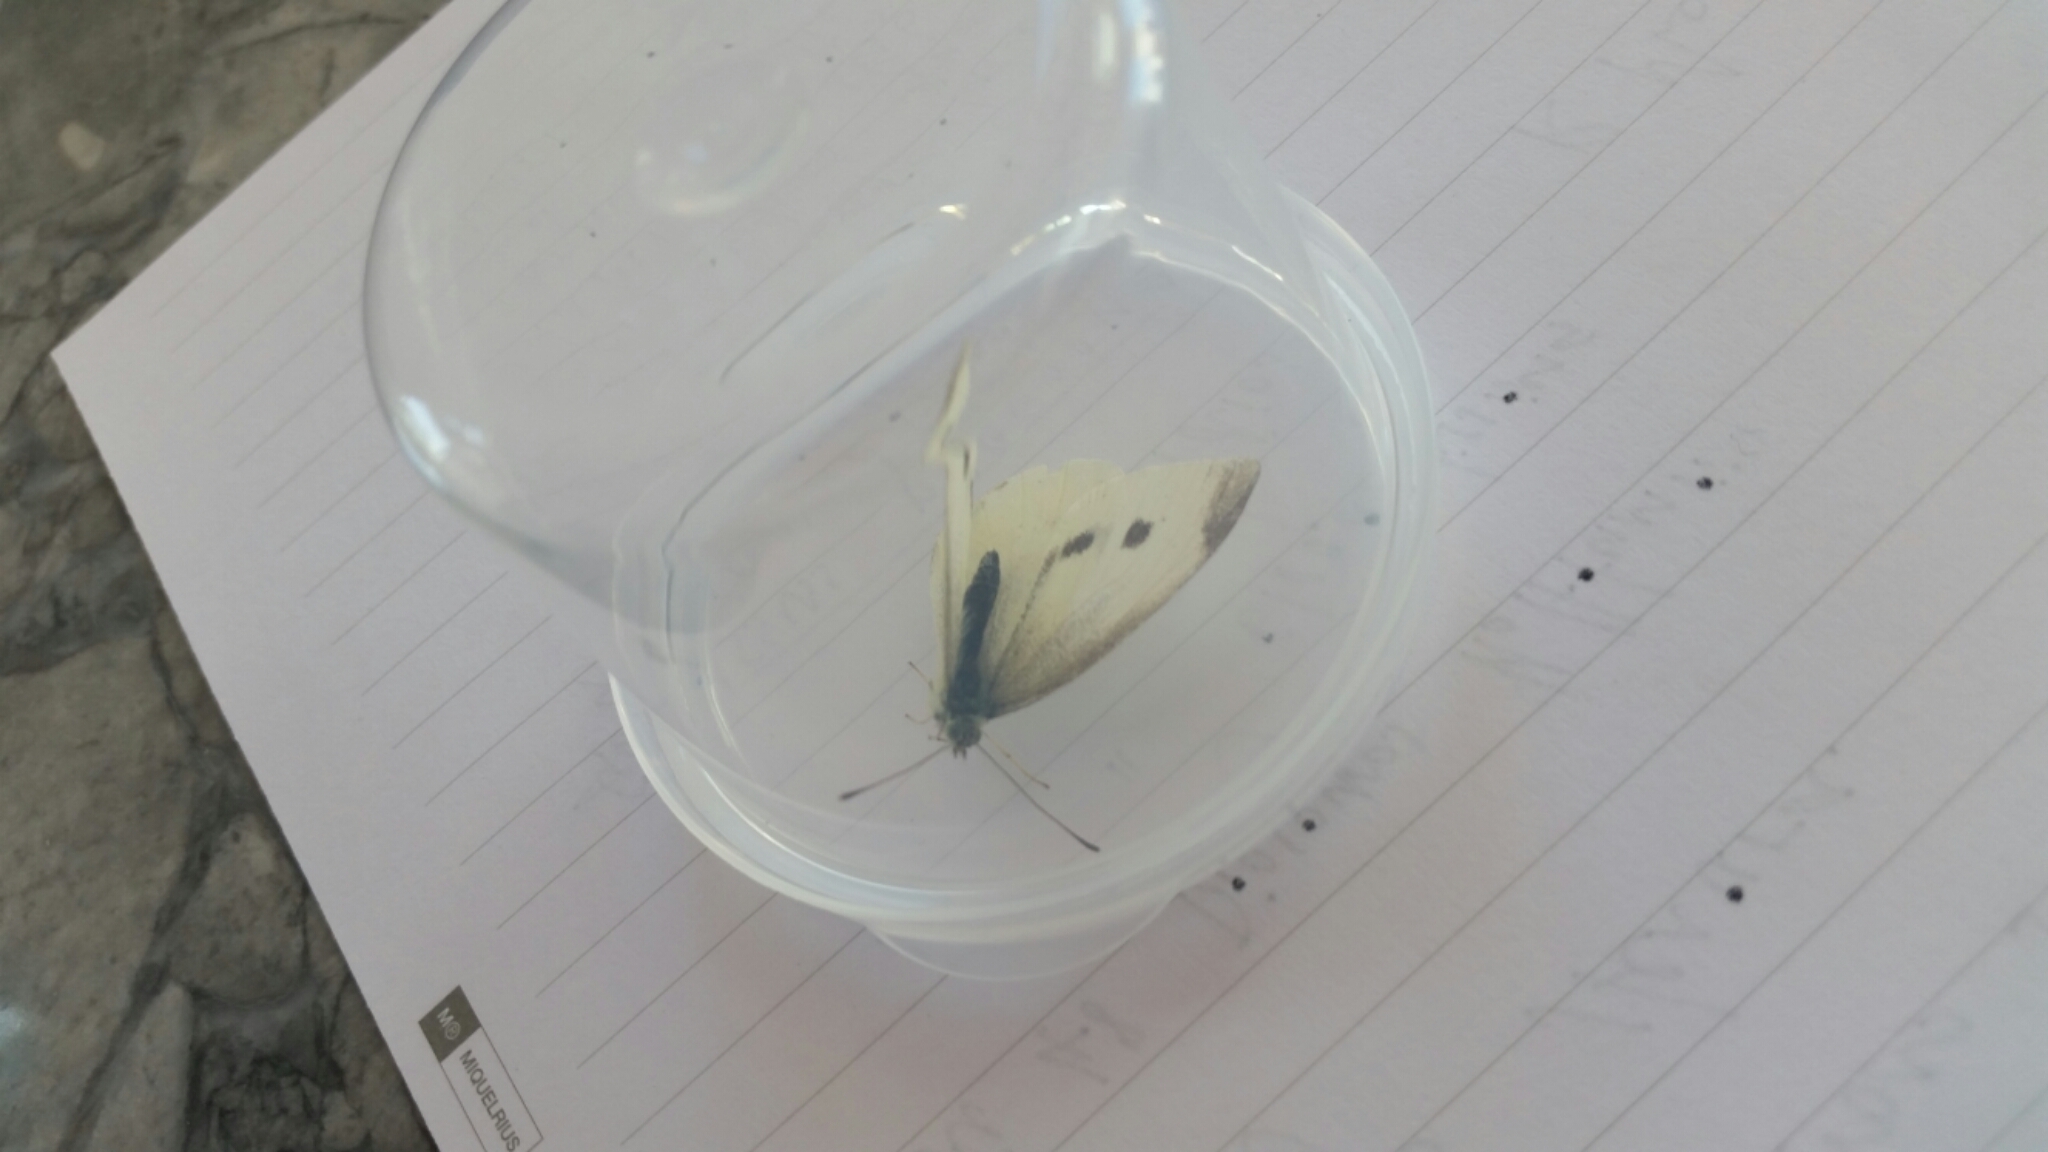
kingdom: Animalia
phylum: Arthropoda
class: Insecta
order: Lepidoptera
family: Pieridae
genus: Pieris
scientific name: Pieris rapae
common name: Small white
